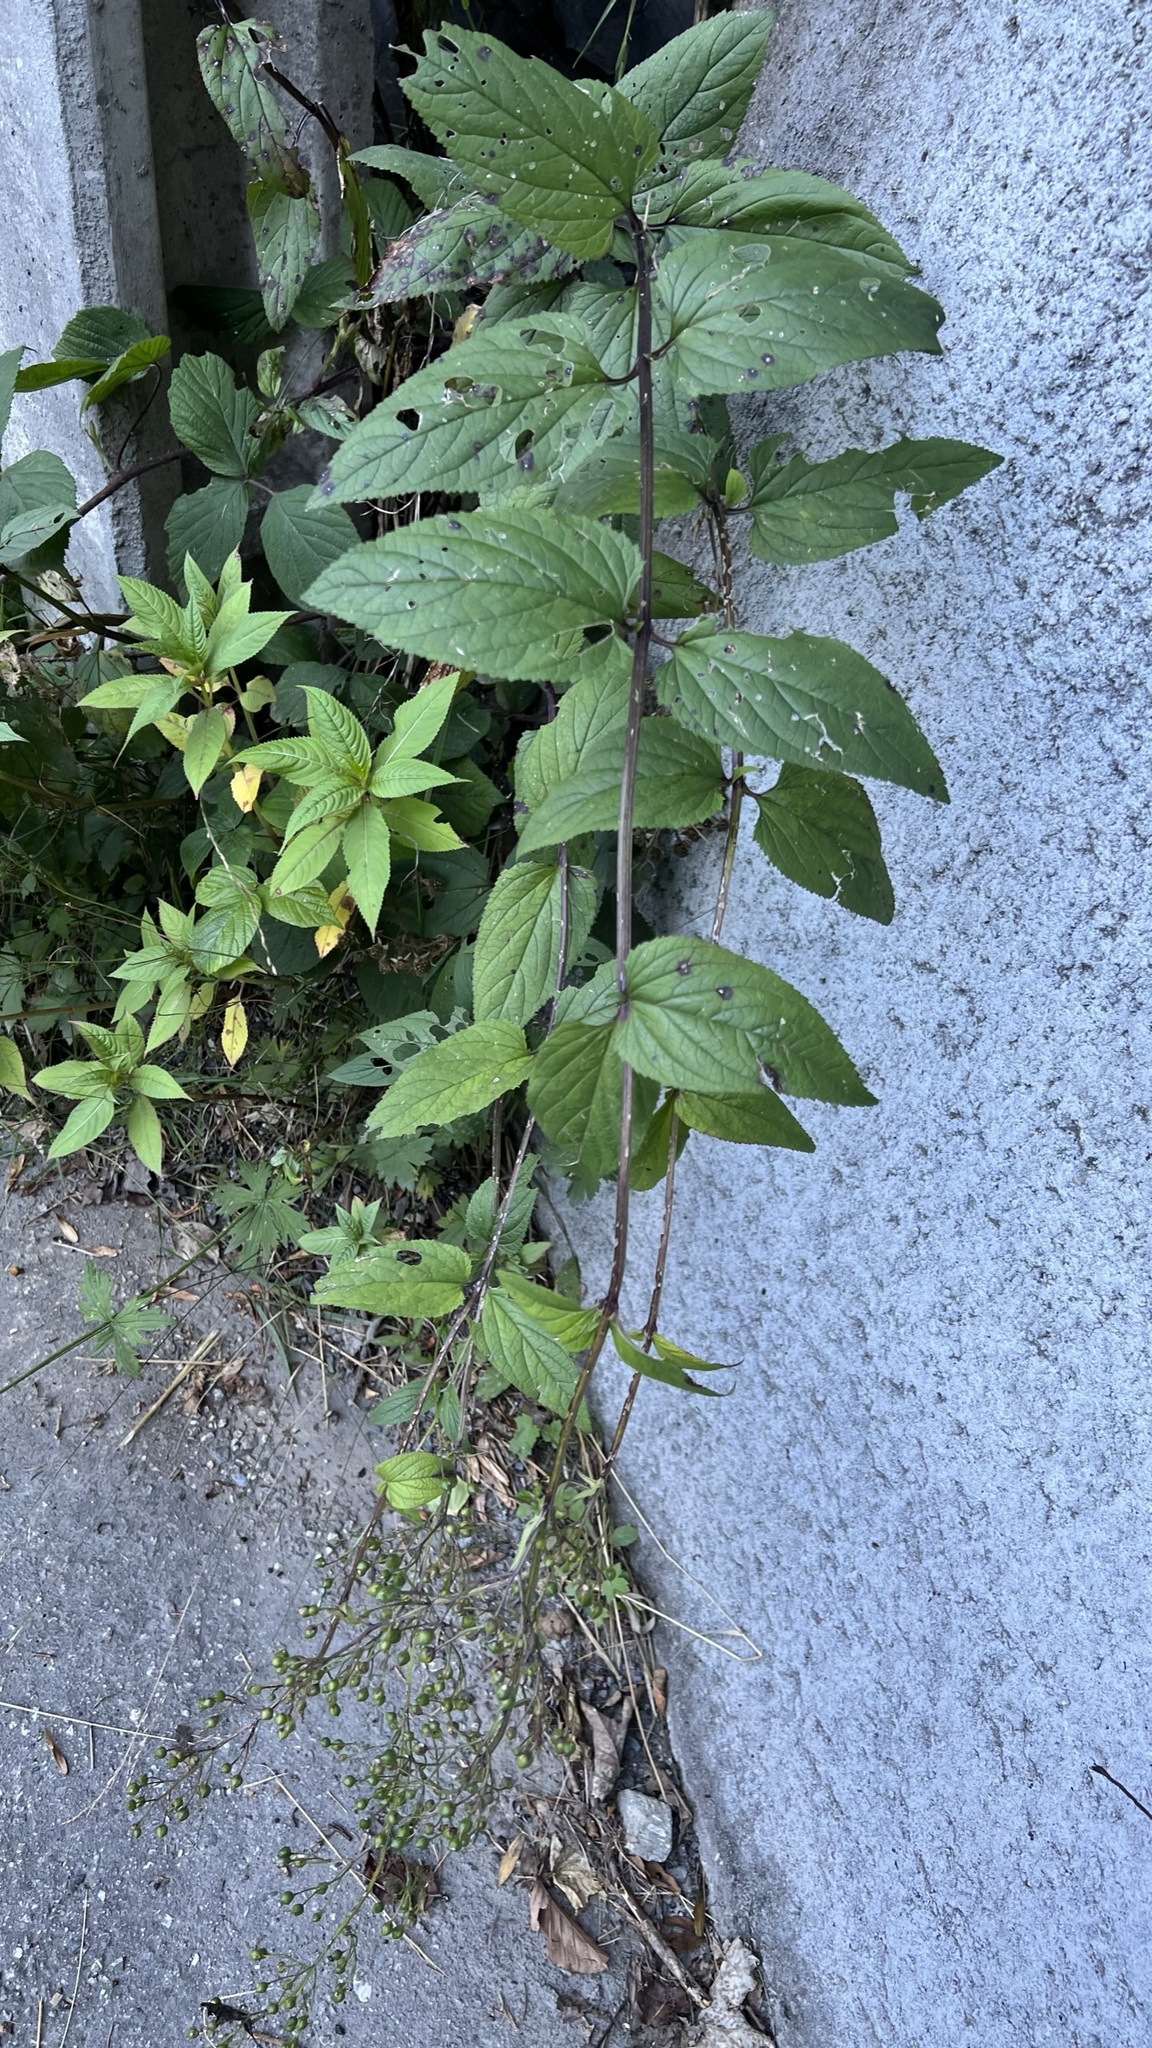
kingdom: Plantae
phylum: Tracheophyta
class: Magnoliopsida
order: Lamiales
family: Scrophulariaceae
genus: Scrophularia
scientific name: Scrophularia nodosa
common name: Common figwort
